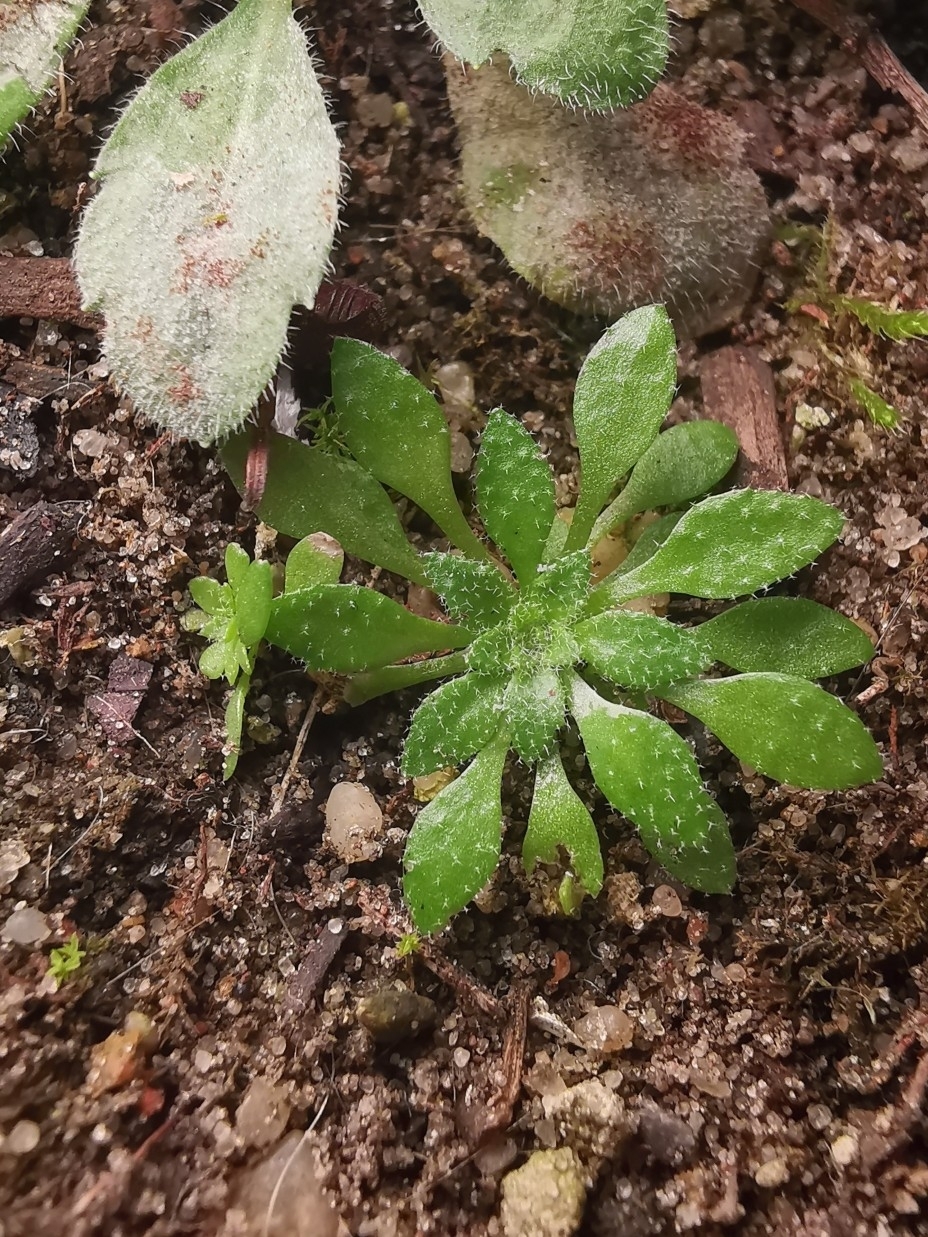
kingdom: Plantae
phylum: Tracheophyta
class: Magnoliopsida
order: Brassicales
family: Brassicaceae
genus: Draba
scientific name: Draba verna
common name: Spring draba
